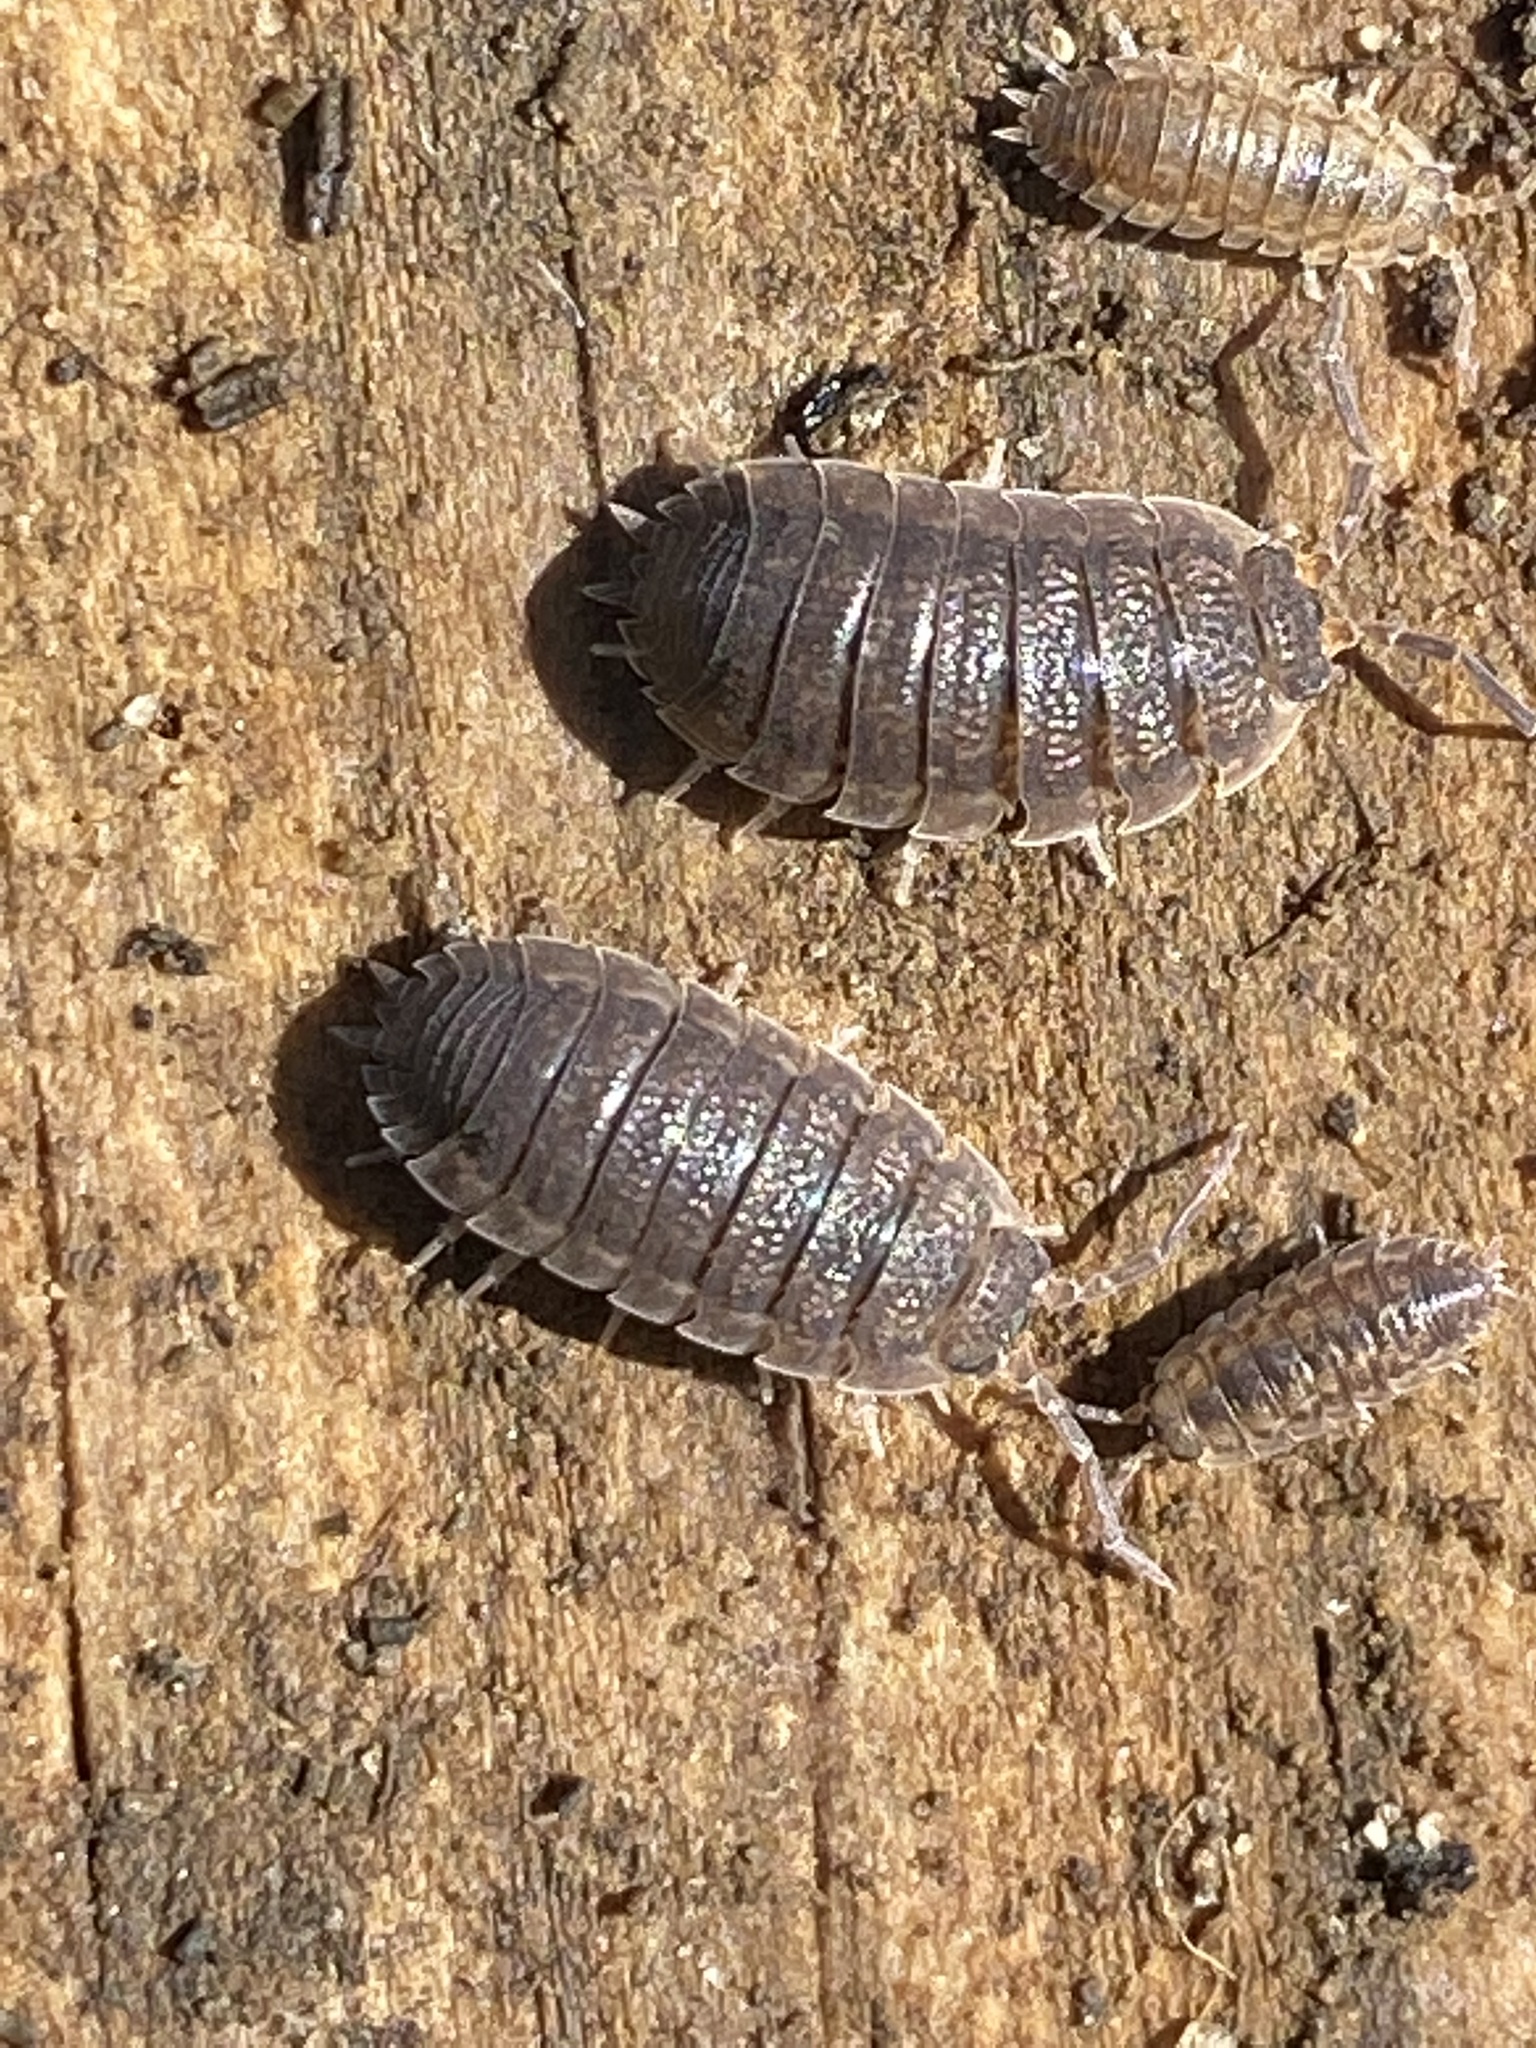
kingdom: Animalia
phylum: Arthropoda
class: Malacostraca
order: Isopoda
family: Porcellionidae
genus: Porcellio
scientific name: Porcellio scaber
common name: Common rough woodlouse
